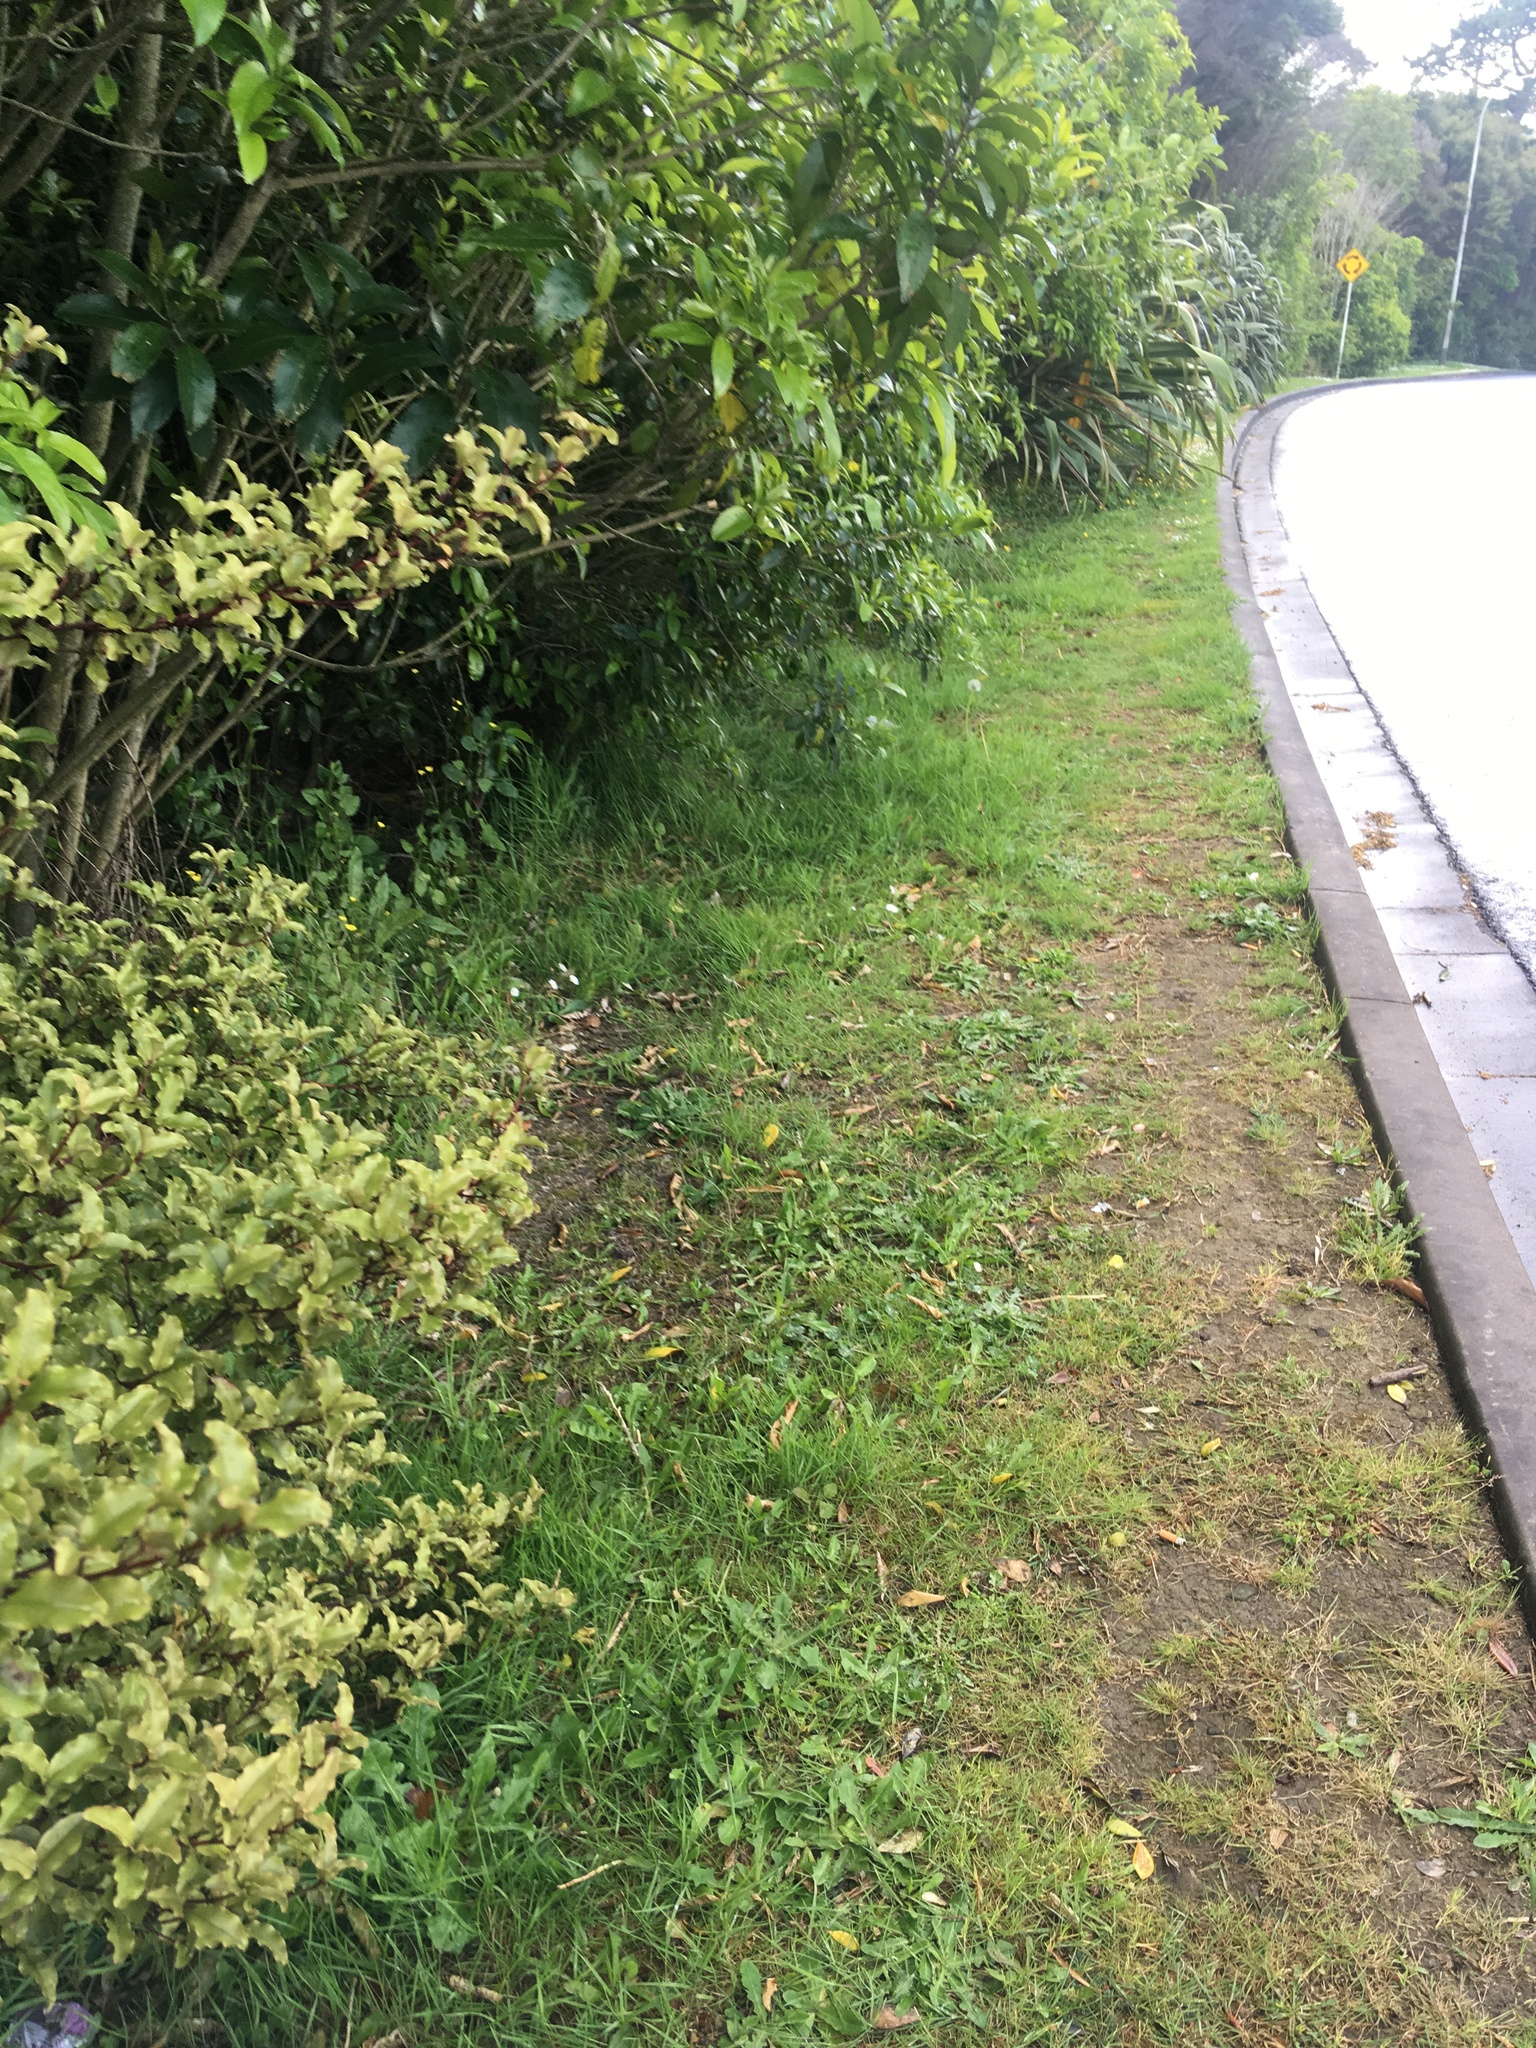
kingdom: Plantae
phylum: Tracheophyta
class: Magnoliopsida
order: Ericales
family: Primulaceae
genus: Myrsine
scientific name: Myrsine australis
